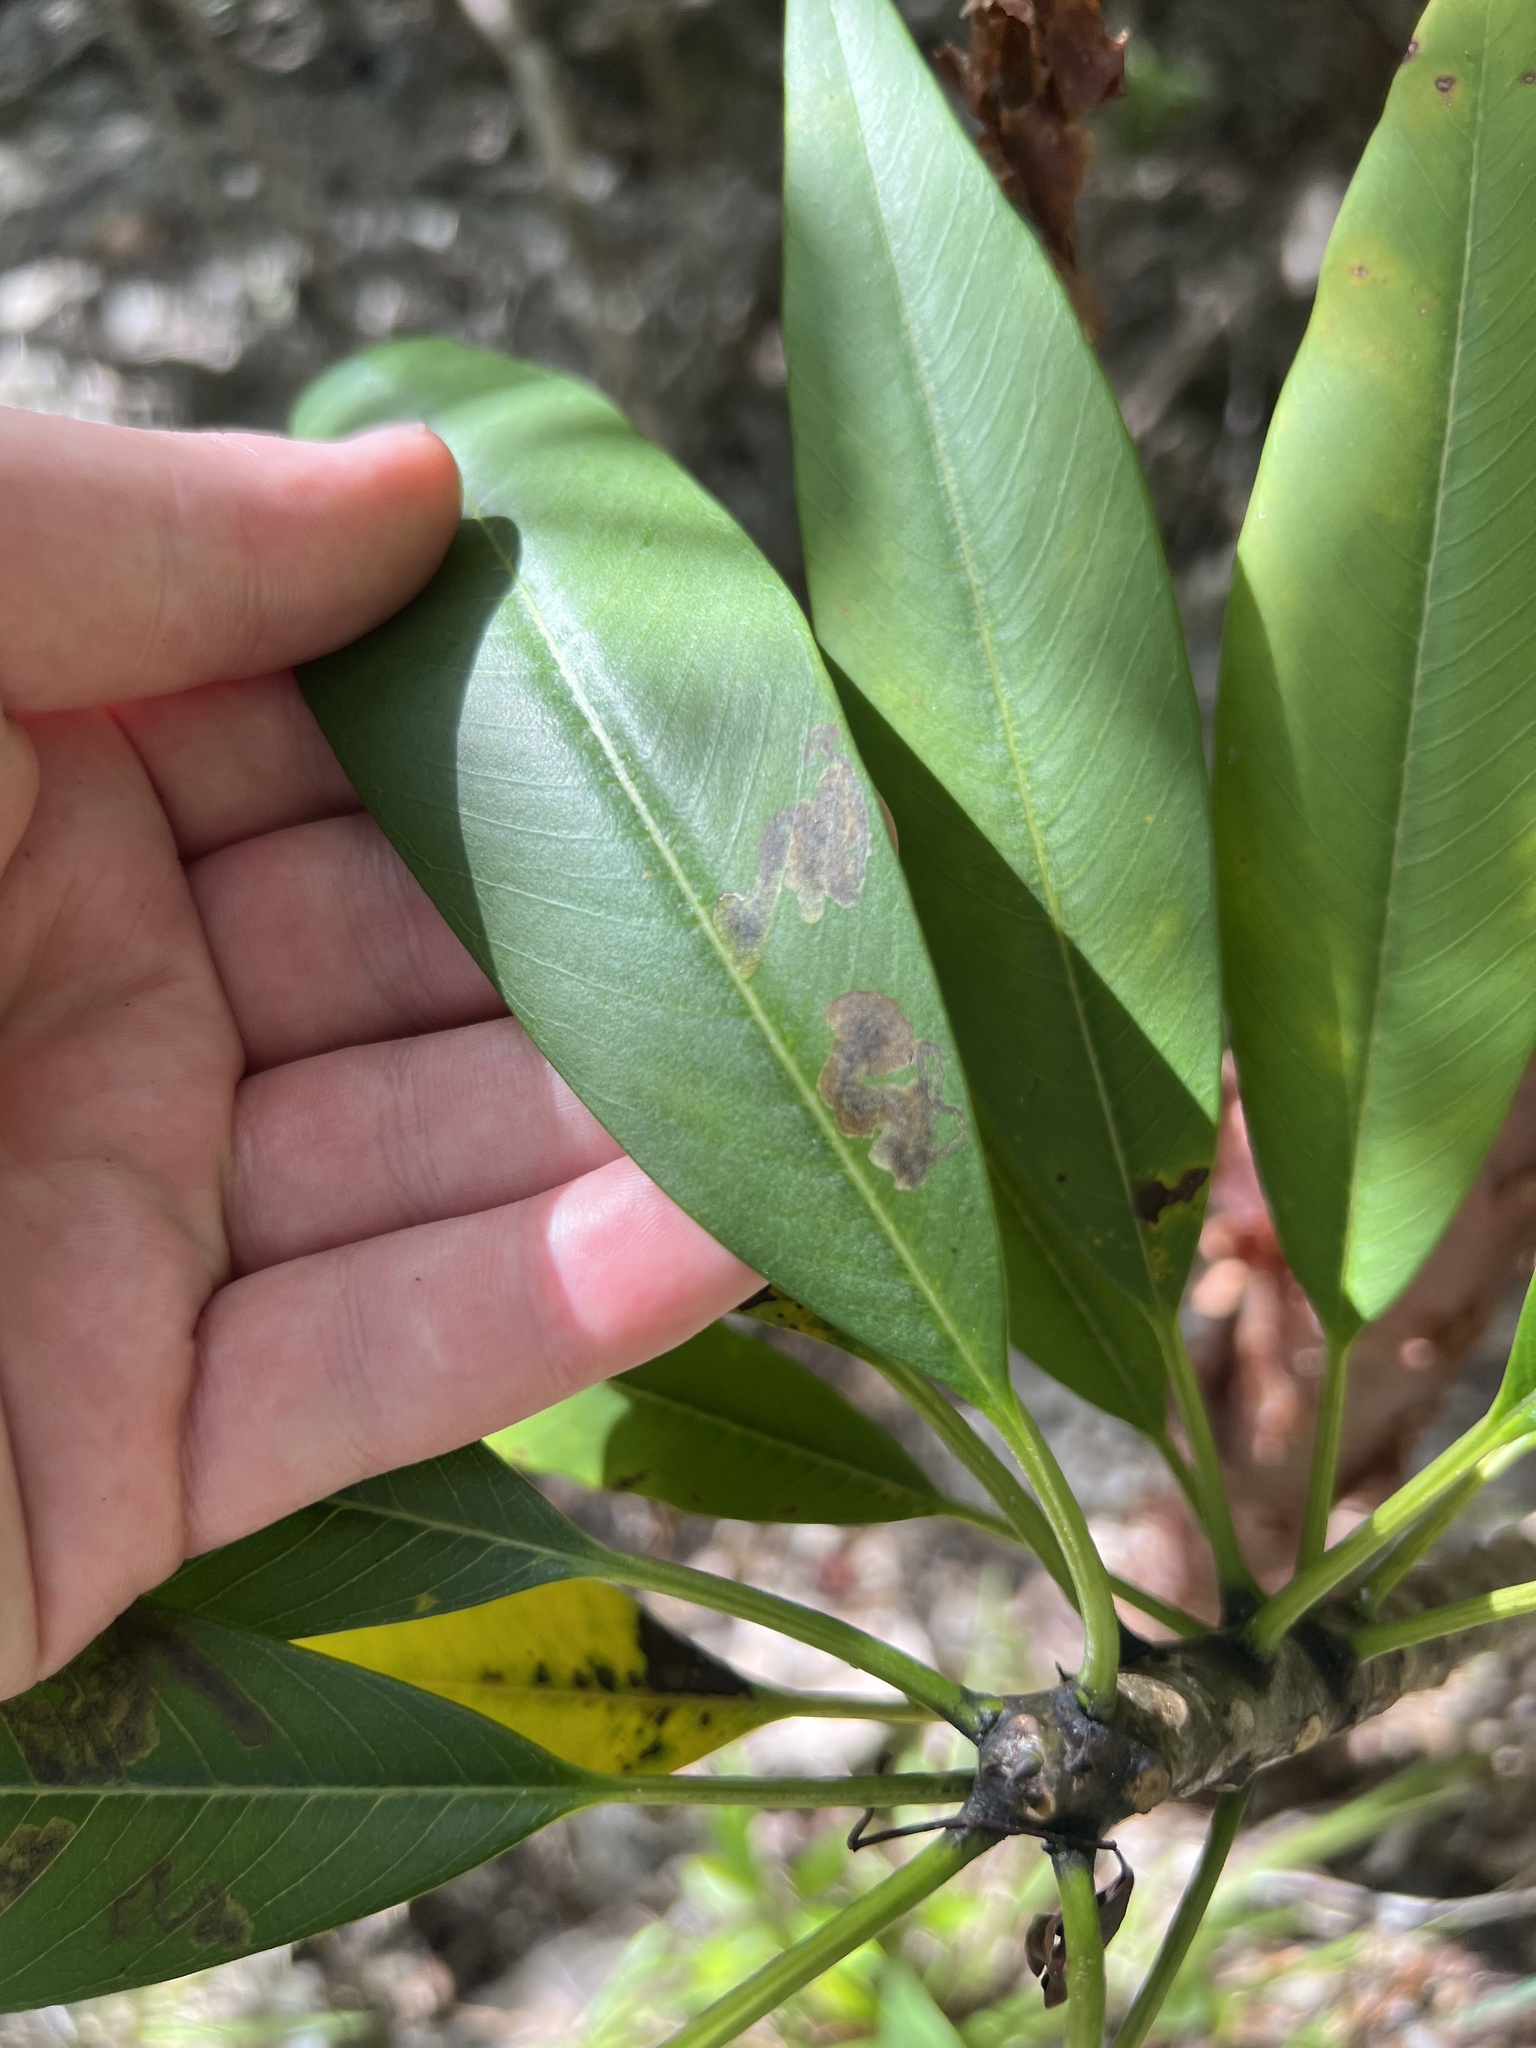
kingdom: Plantae
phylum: Tracheophyta
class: Magnoliopsida
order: Gentianales
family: Apocynaceae
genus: Plumeria
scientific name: Plumeria obtusa
